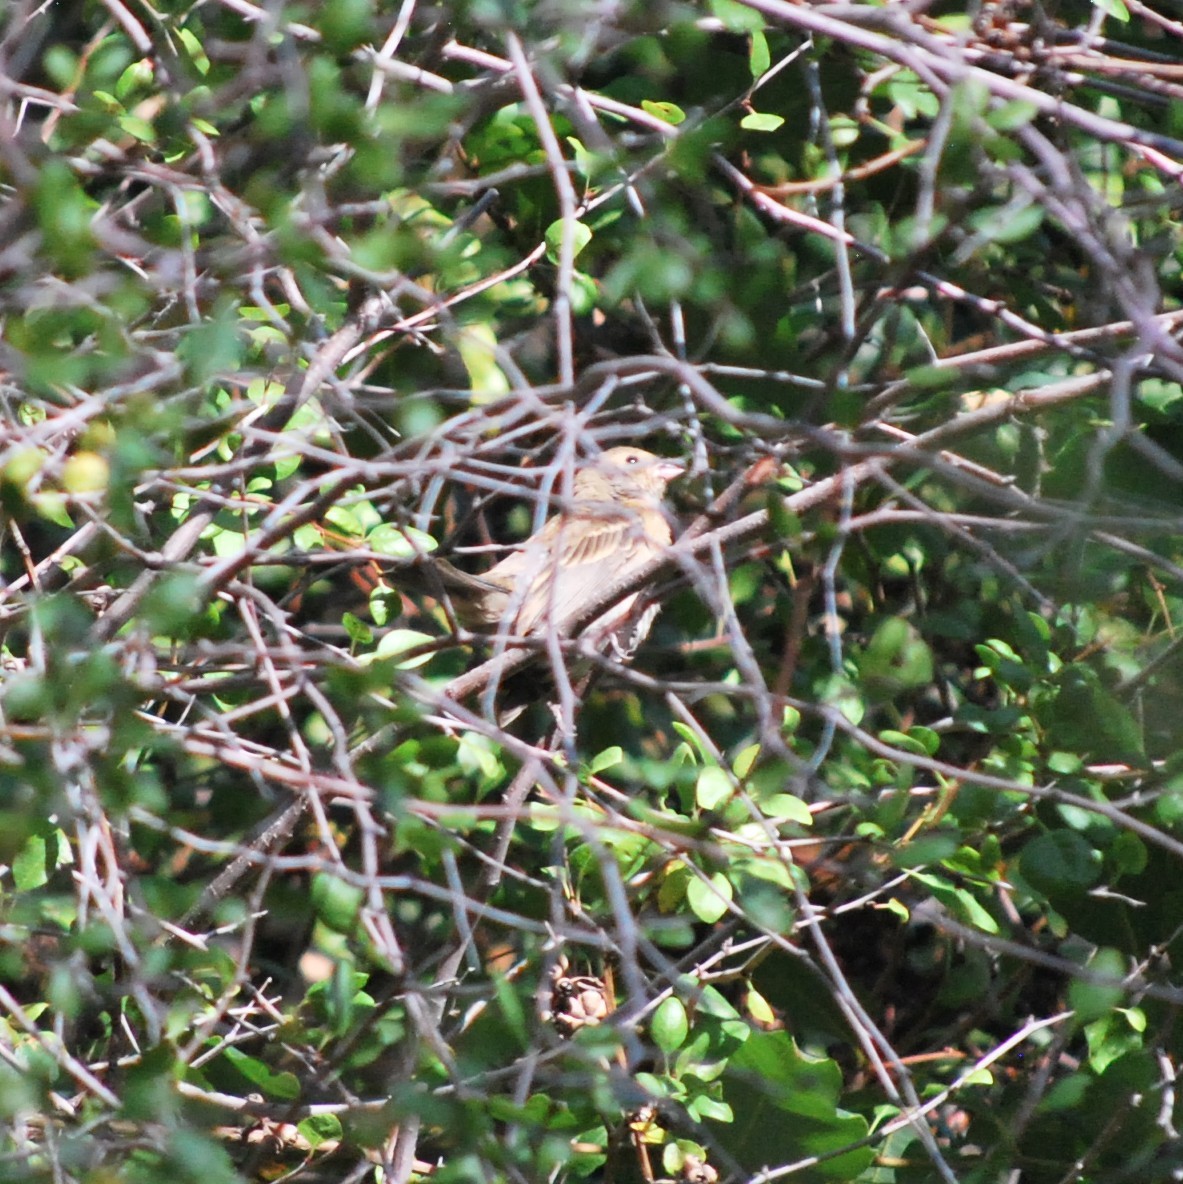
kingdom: Animalia
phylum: Chordata
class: Aves
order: Passeriformes
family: Cardinalidae
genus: Passerina
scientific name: Passerina amoena
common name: Lazuli bunting
